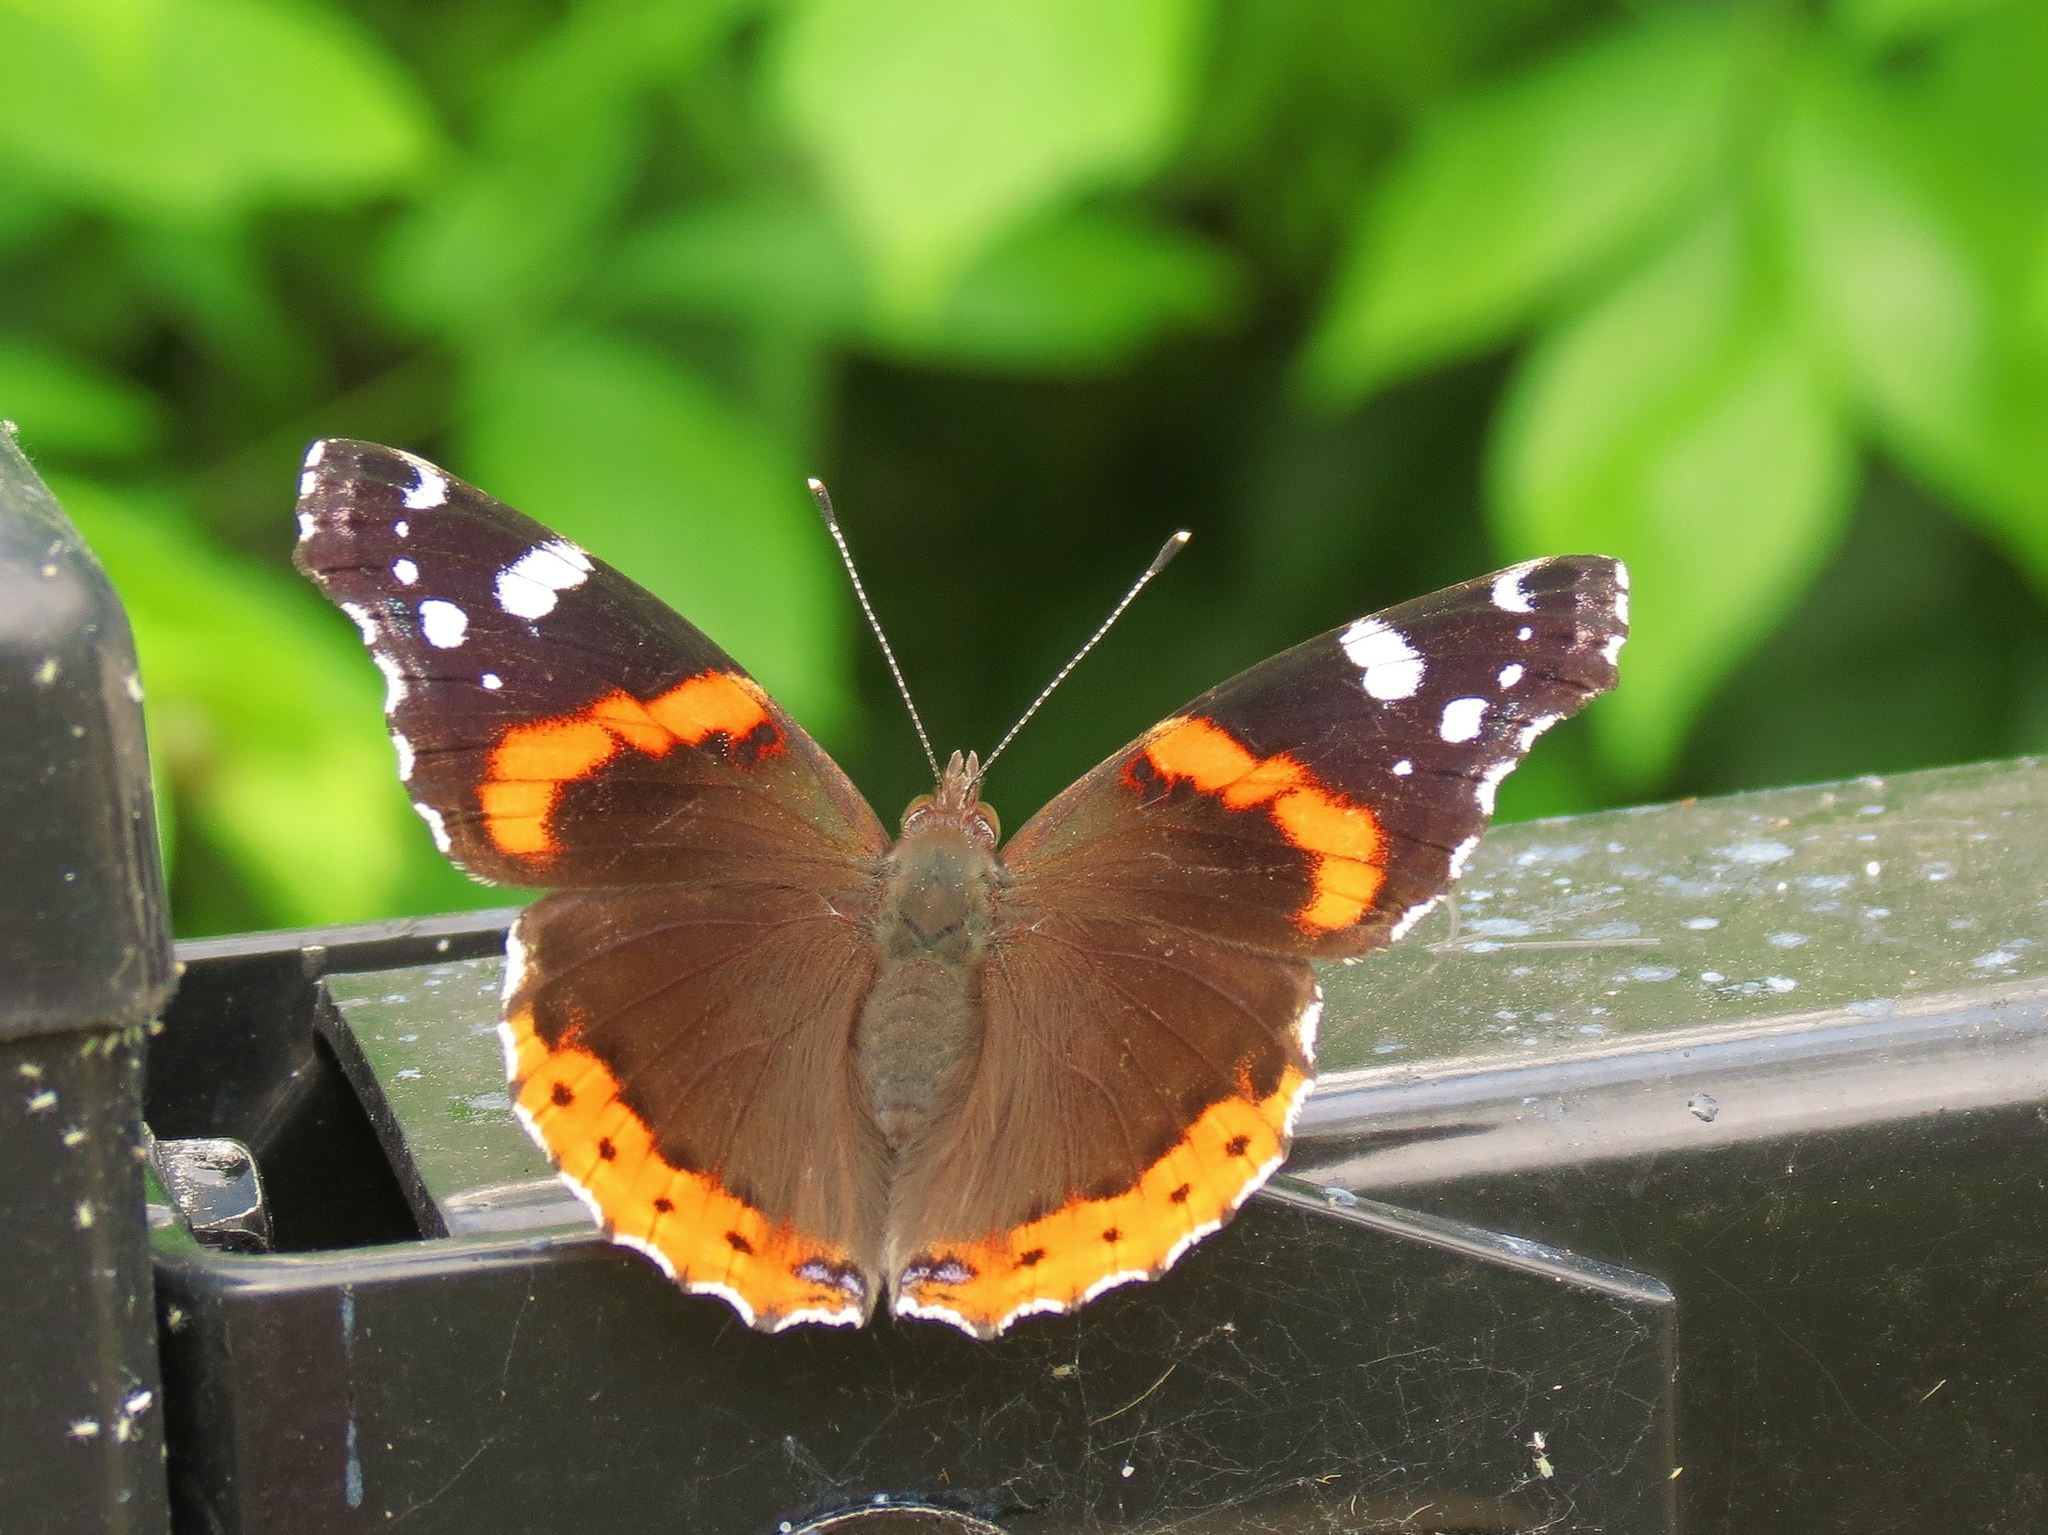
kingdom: Animalia
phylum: Arthropoda
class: Insecta
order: Lepidoptera
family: Nymphalidae
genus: Vanessa
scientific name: Vanessa atalanta
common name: Red admiral
